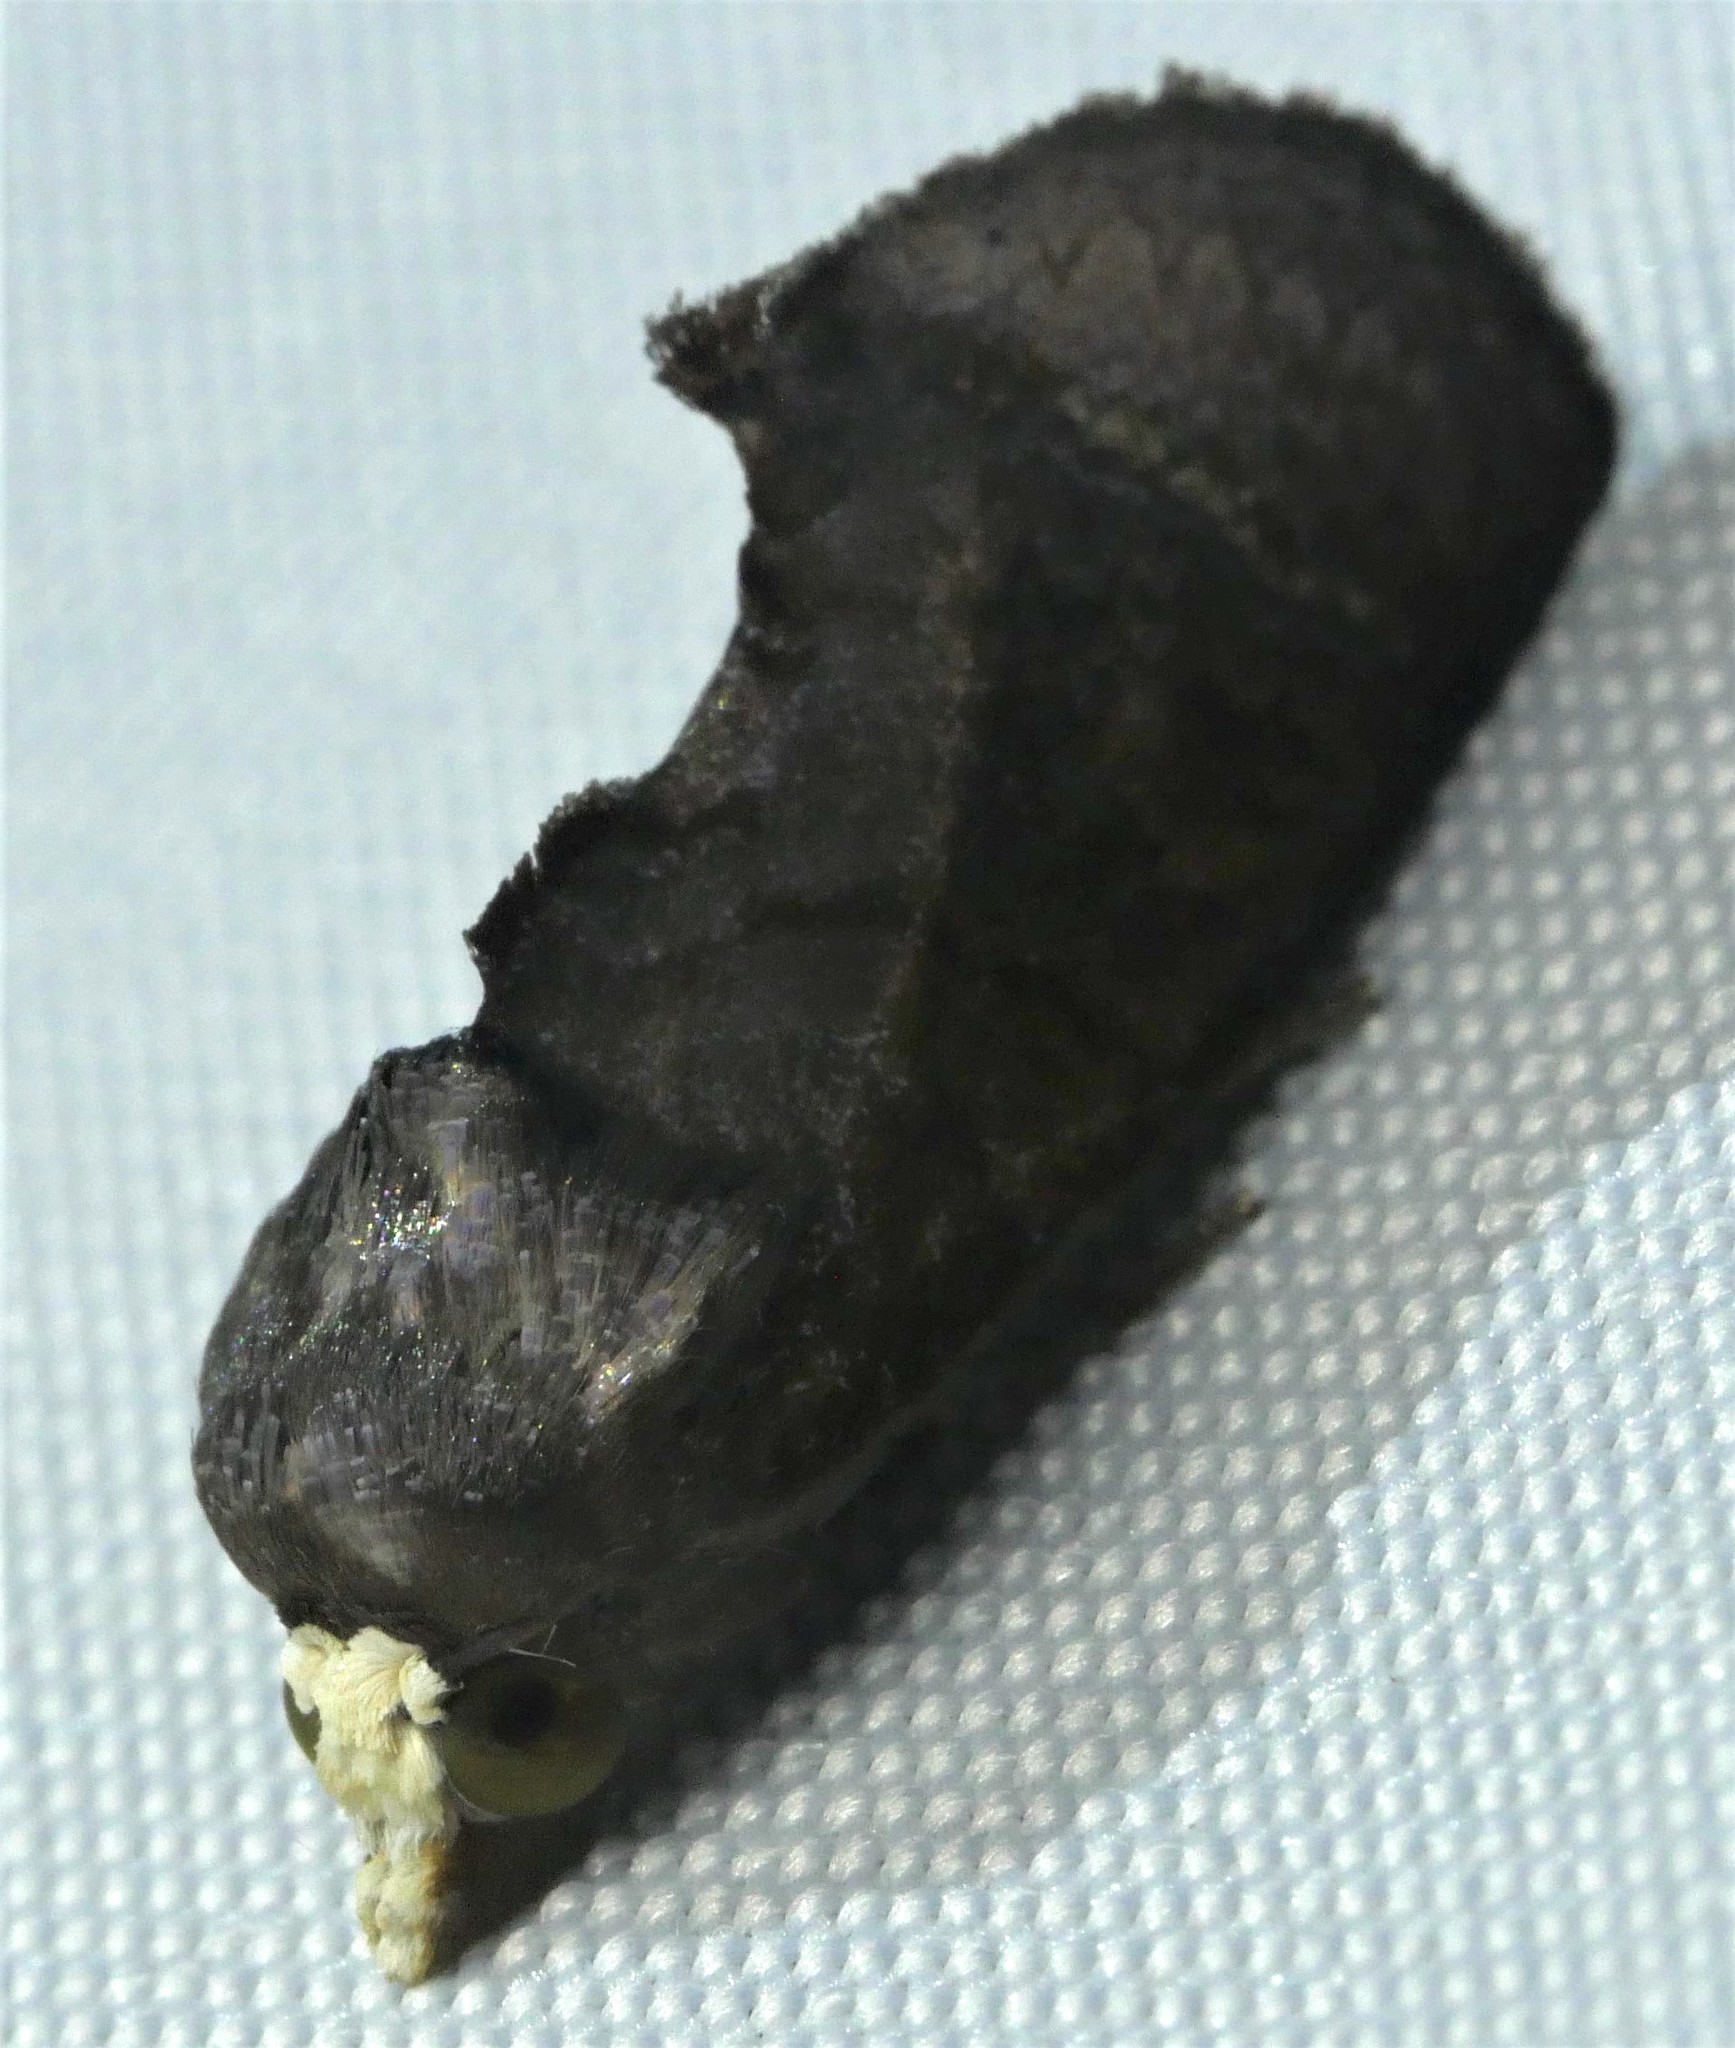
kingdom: Animalia
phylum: Arthropoda
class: Insecta
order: Lepidoptera
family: Erebidae
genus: Gonodonta
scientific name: Gonodonta clotilda
